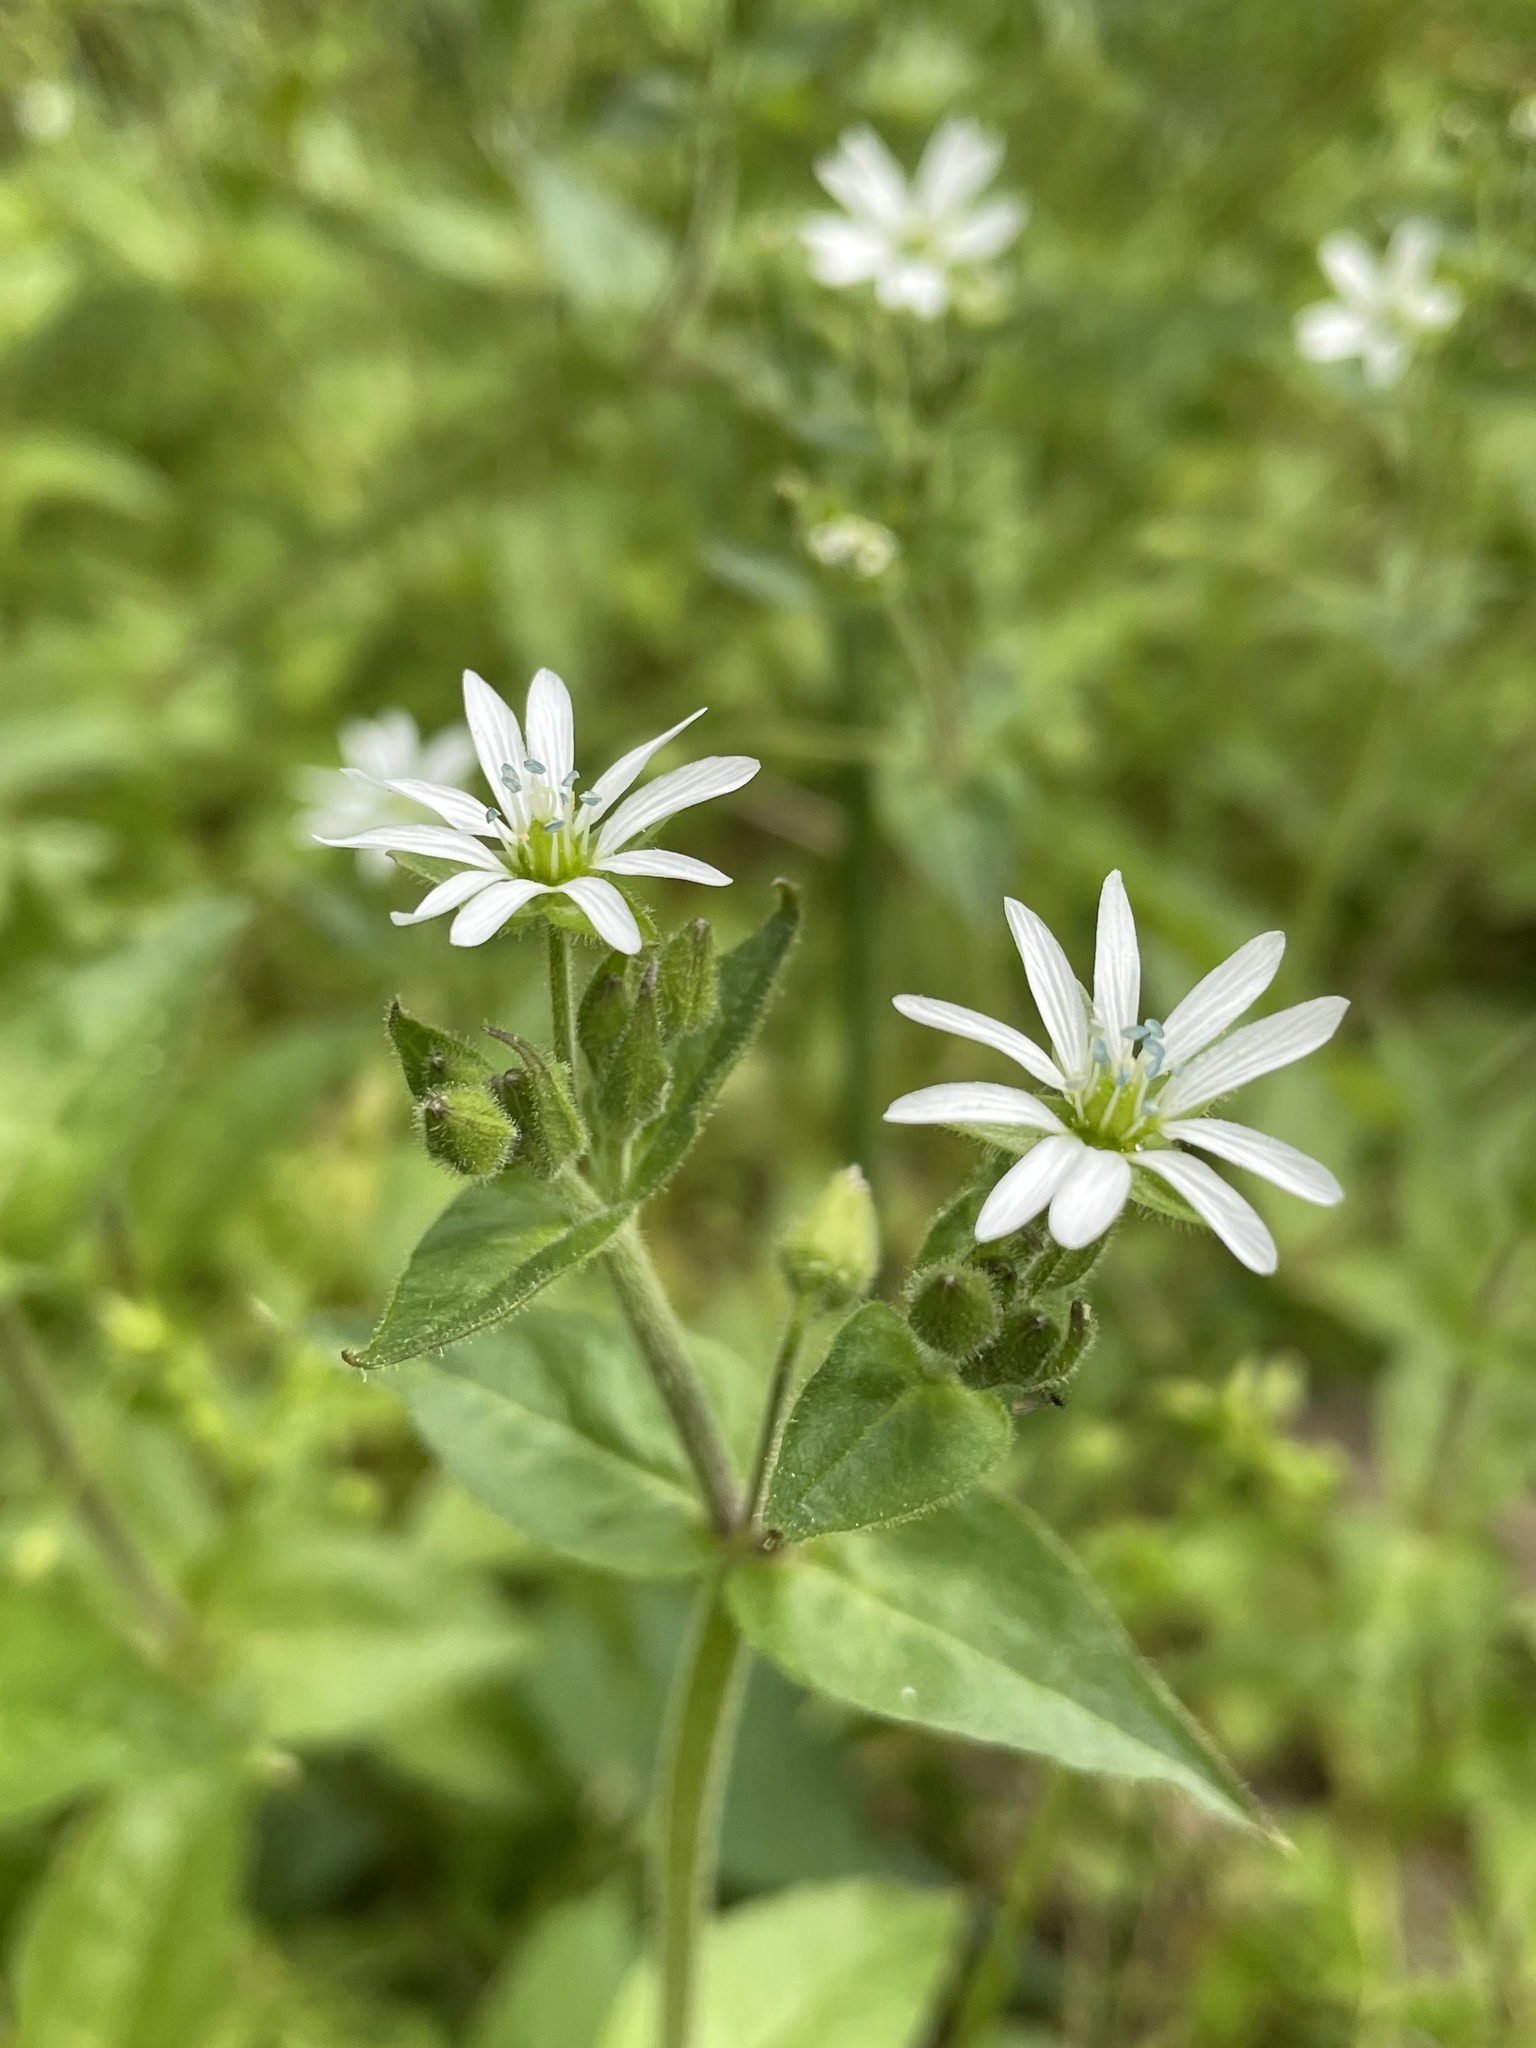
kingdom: Plantae
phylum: Tracheophyta
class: Magnoliopsida
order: Caryophyllales
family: Caryophyllaceae
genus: Stellaria
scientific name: Stellaria aquatica
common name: Water chickweed
